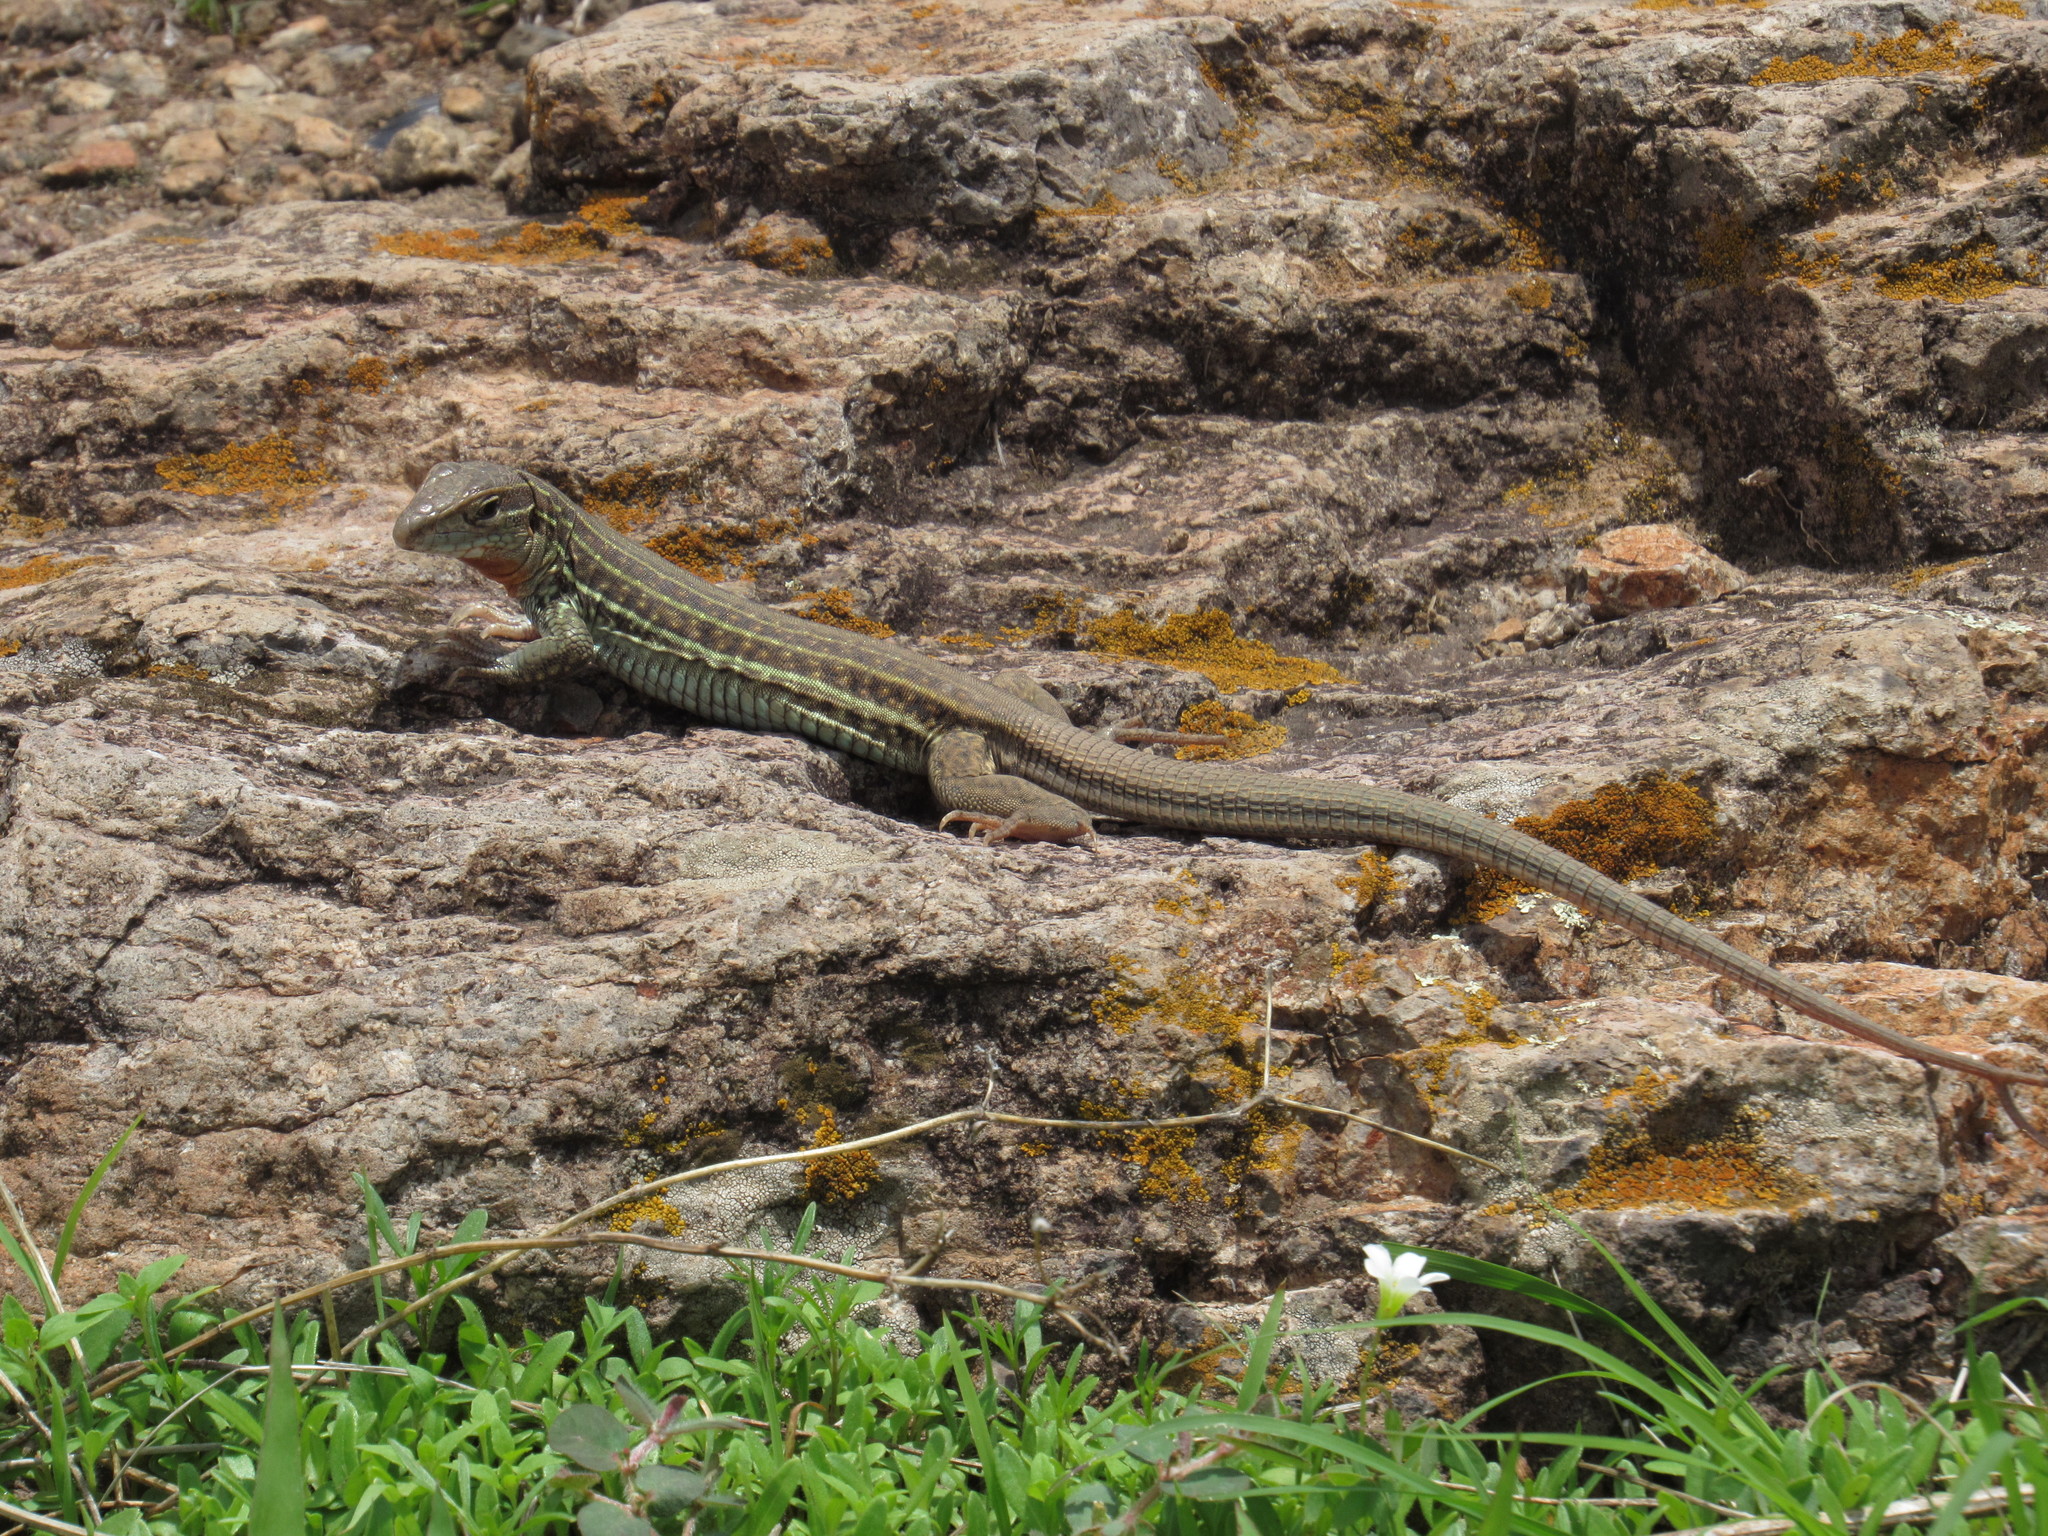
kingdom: Animalia
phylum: Chordata
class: Squamata
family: Teiidae
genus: Aspidoscelis
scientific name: Aspidoscelis gularis
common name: Eastern spotted whiptail
